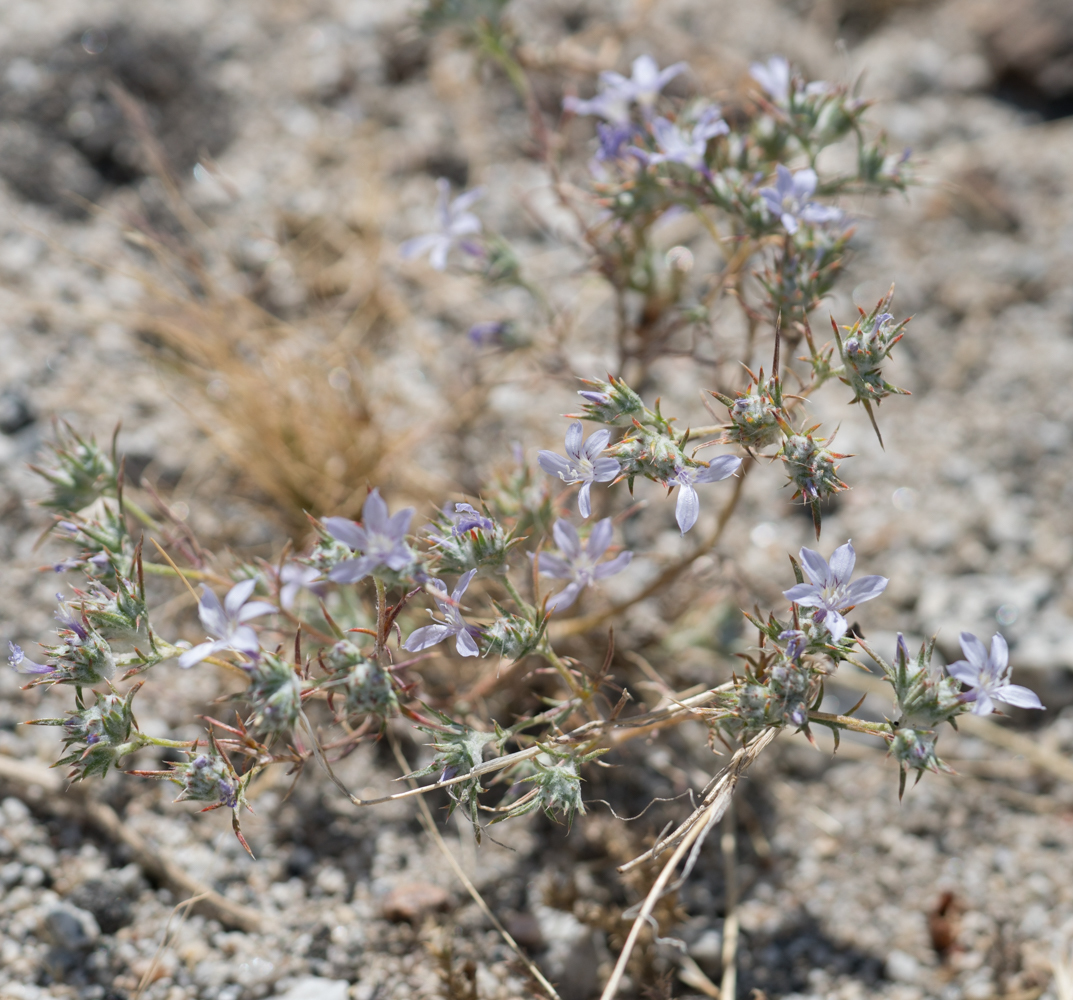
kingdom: Plantae
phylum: Tracheophyta
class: Magnoliopsida
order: Ericales
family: Polemoniaceae
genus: Eriastrum
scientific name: Eriastrum eremicum
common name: Desert eriastrum
